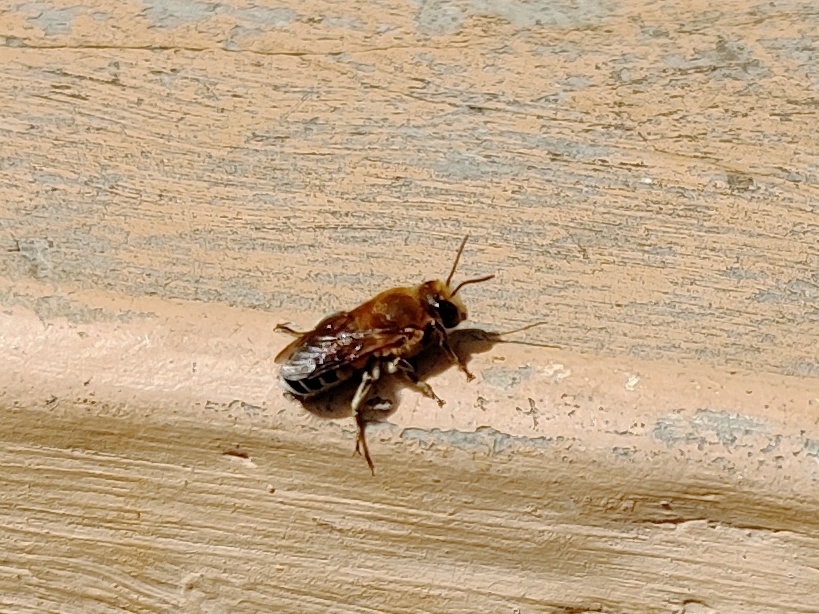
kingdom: Animalia
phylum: Arthropoda
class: Insecta
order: Hymenoptera
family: Megachilidae
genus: Megachile
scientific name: Megachile lanata
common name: Wooly wall bee
